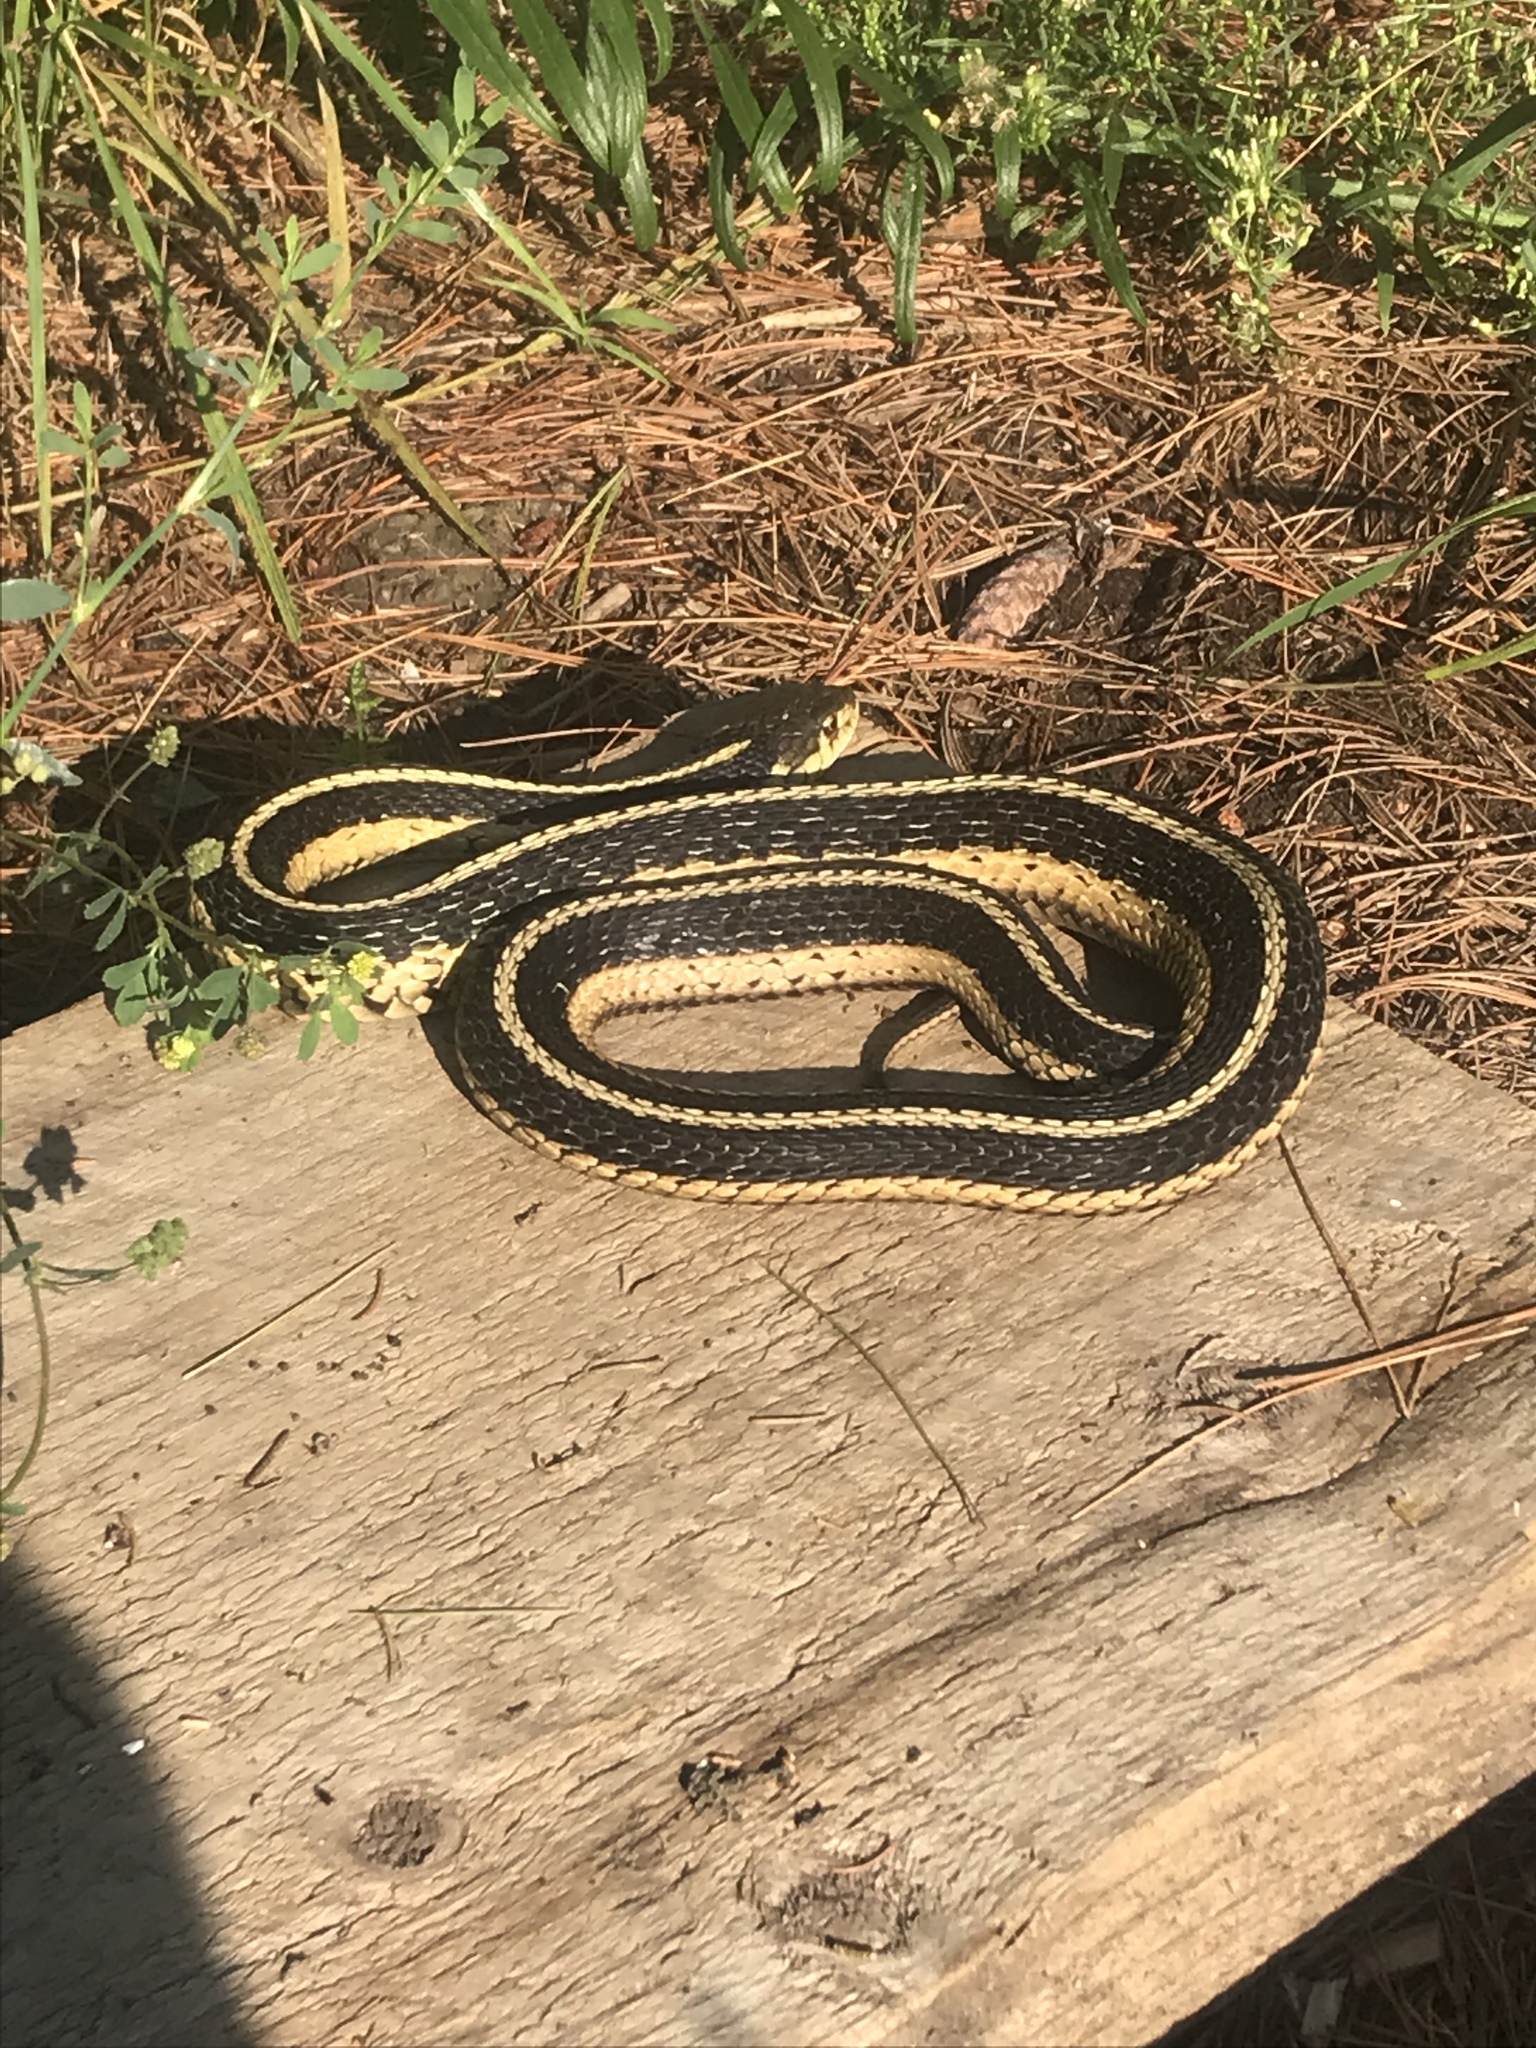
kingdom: Animalia
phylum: Chordata
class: Squamata
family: Colubridae
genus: Thamnophis
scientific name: Thamnophis sirtalis
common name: Common garter snake
